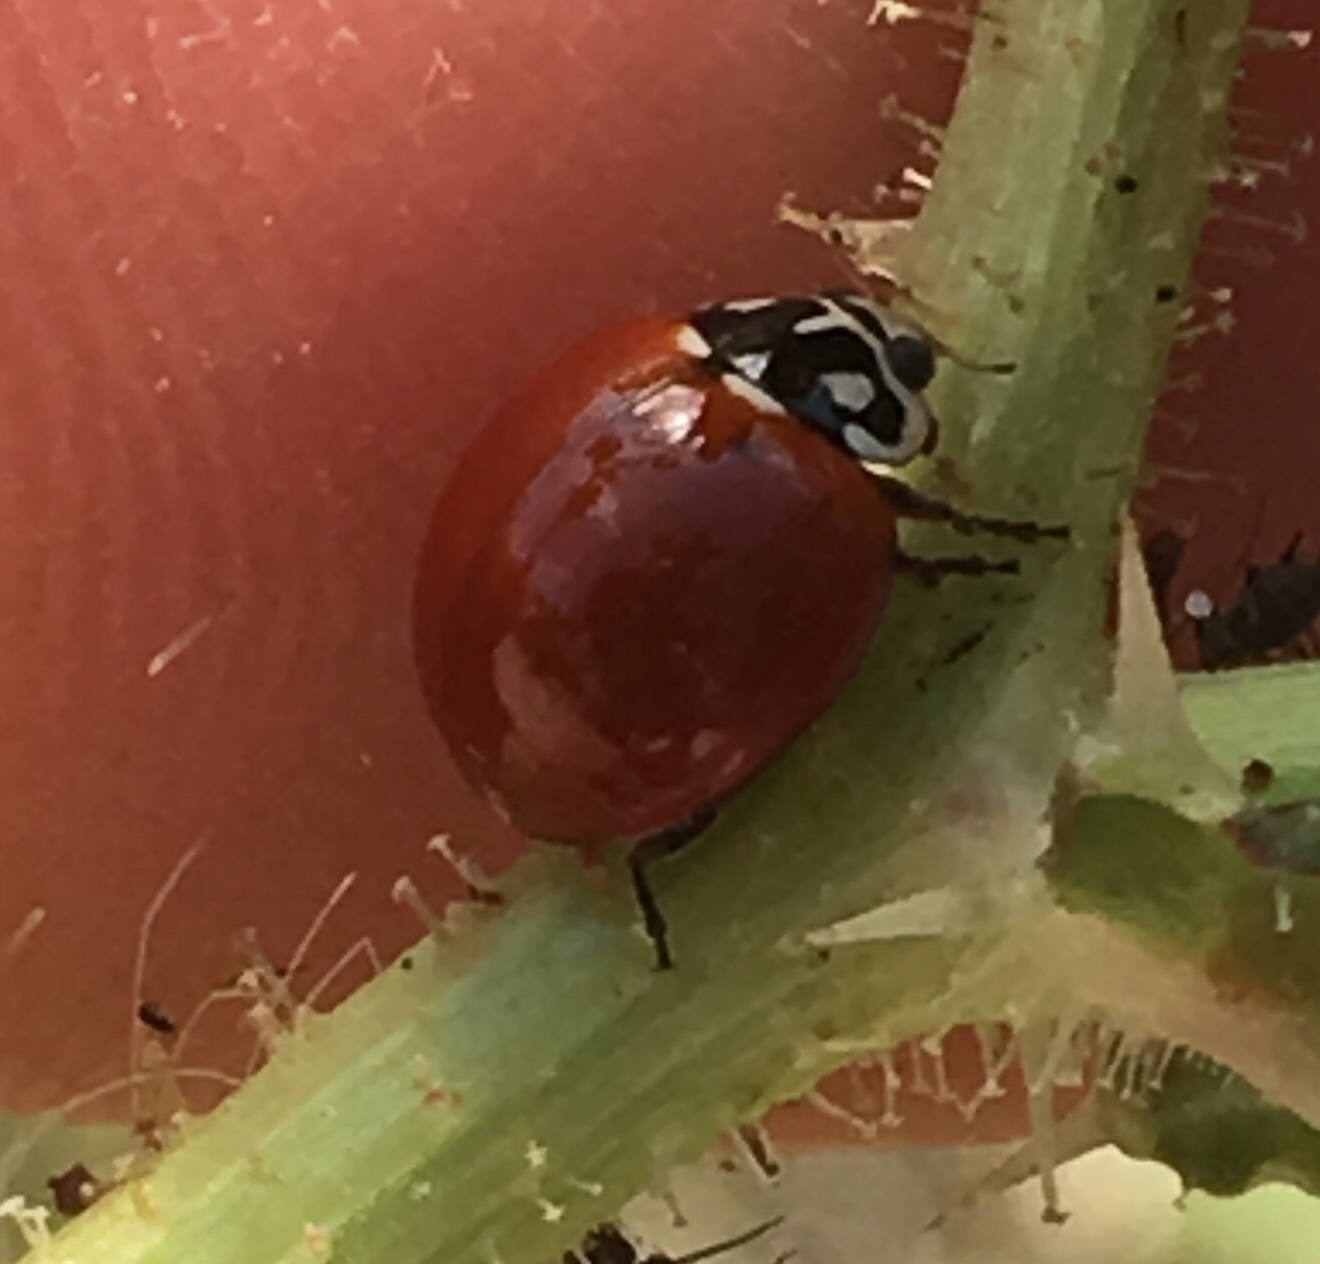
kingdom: Animalia
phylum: Arthropoda
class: Insecta
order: Coleoptera
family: Coccinellidae
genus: Cycloneda
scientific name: Cycloneda sanguinea
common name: Ladybird beetle
